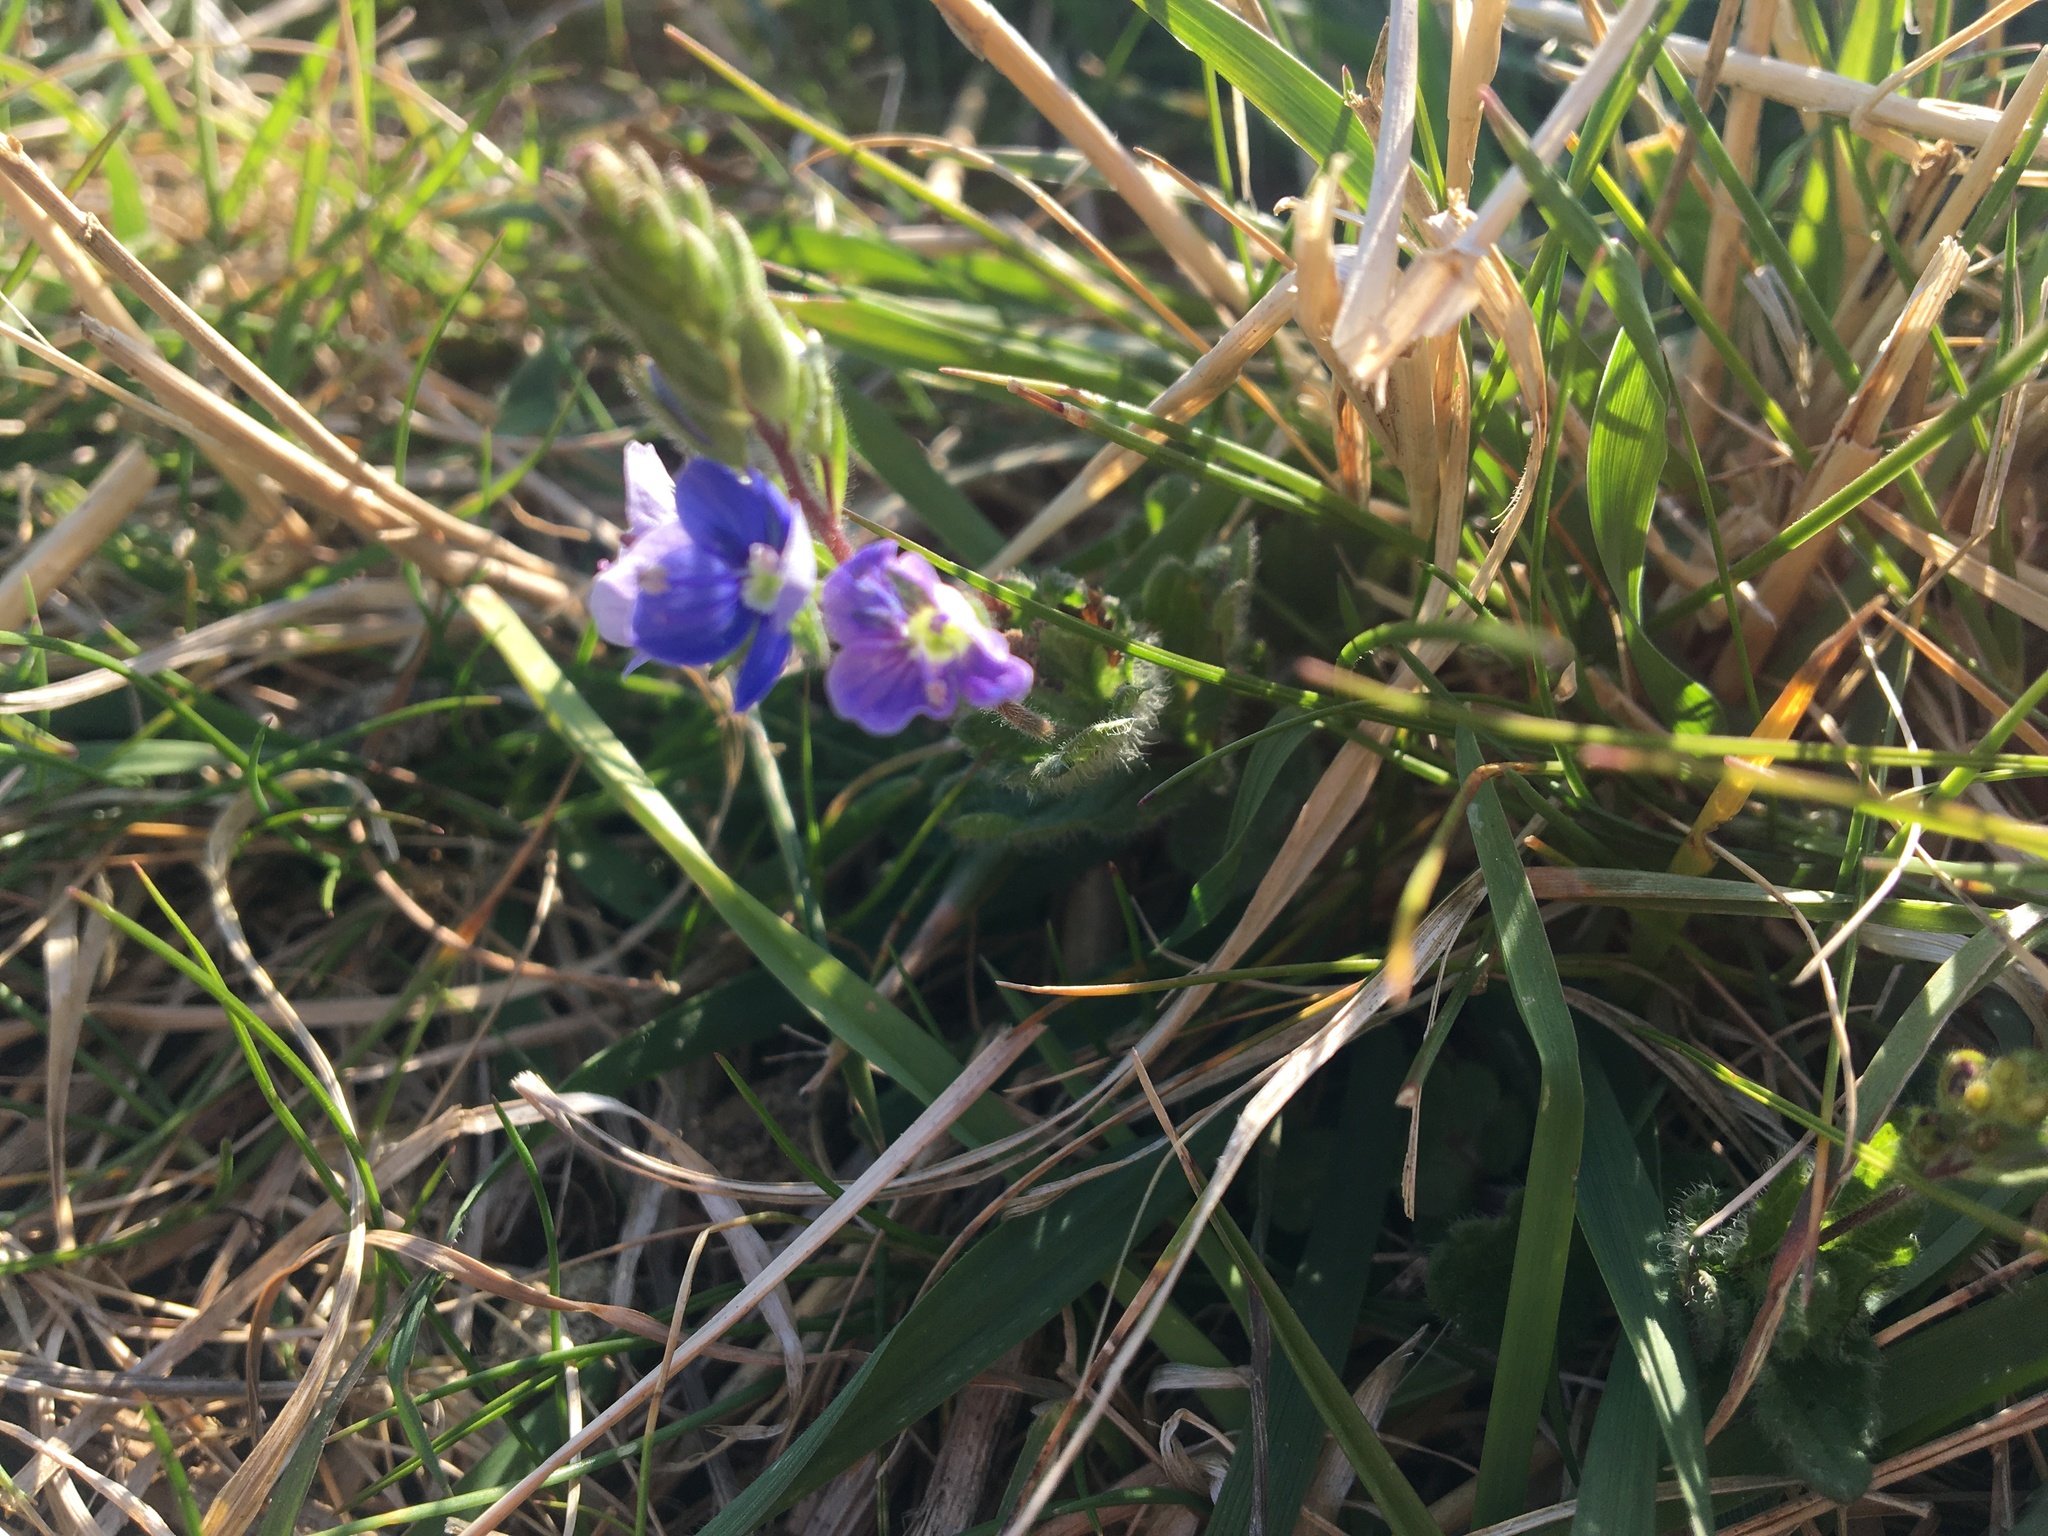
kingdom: Plantae
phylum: Tracheophyta
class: Magnoliopsida
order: Lamiales
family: Plantaginaceae
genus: Veronica
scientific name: Veronica chamaedrys
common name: Germander speedwell
